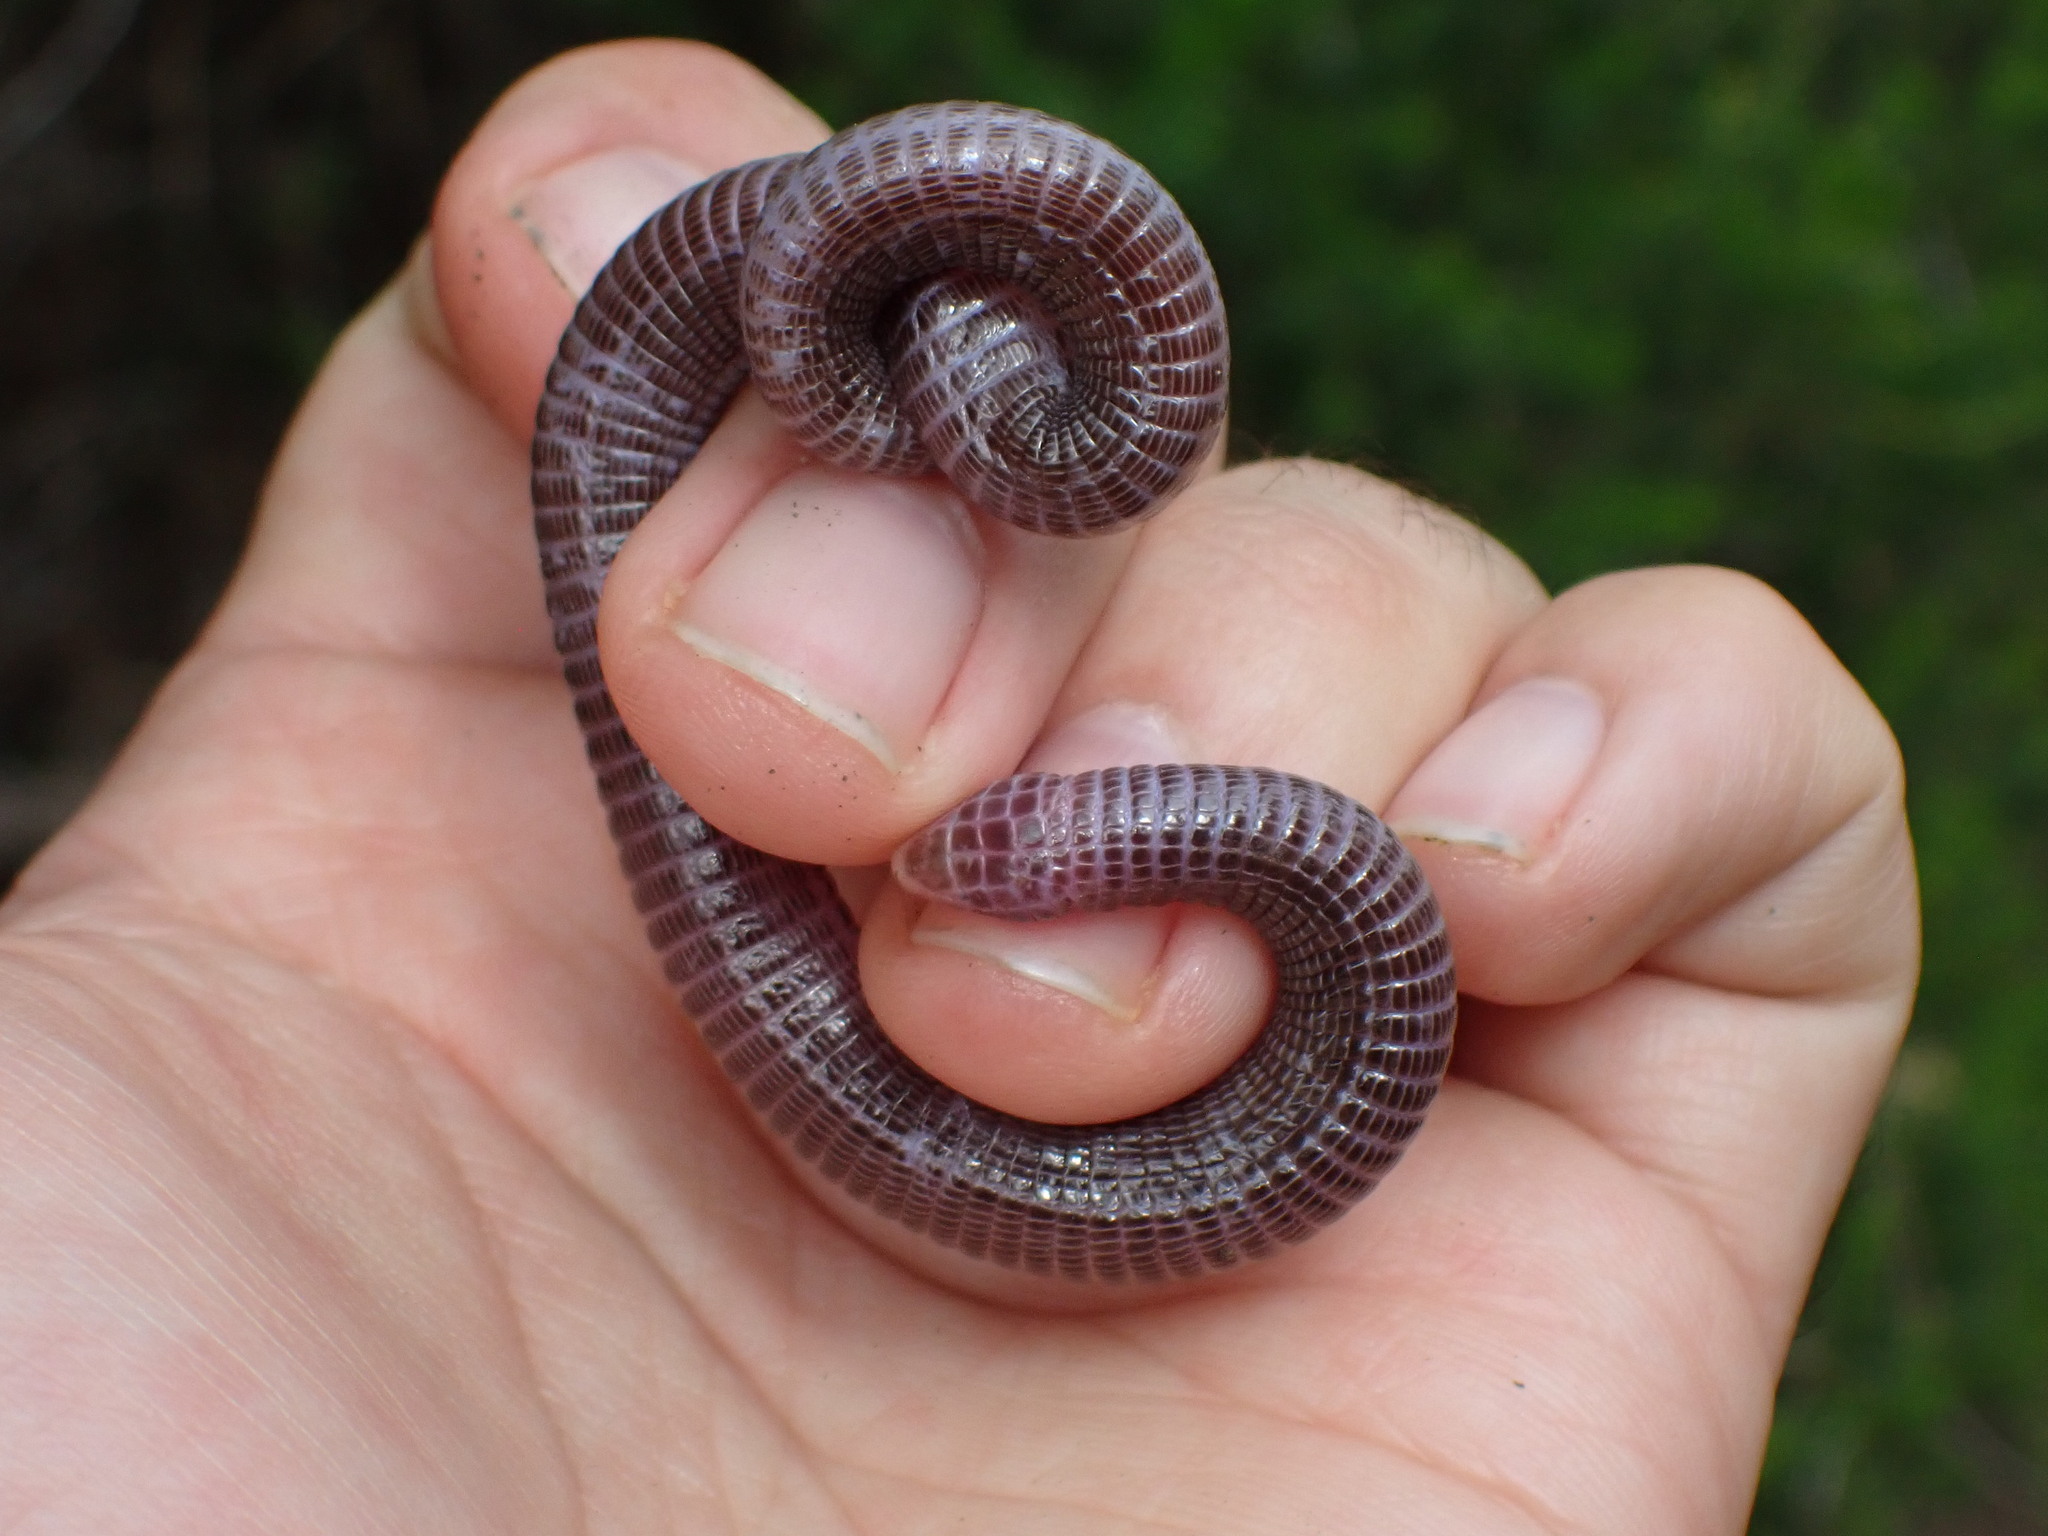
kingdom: Animalia
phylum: Chordata
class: Squamata
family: Blanidae
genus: Blanus
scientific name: Blanus aporus
